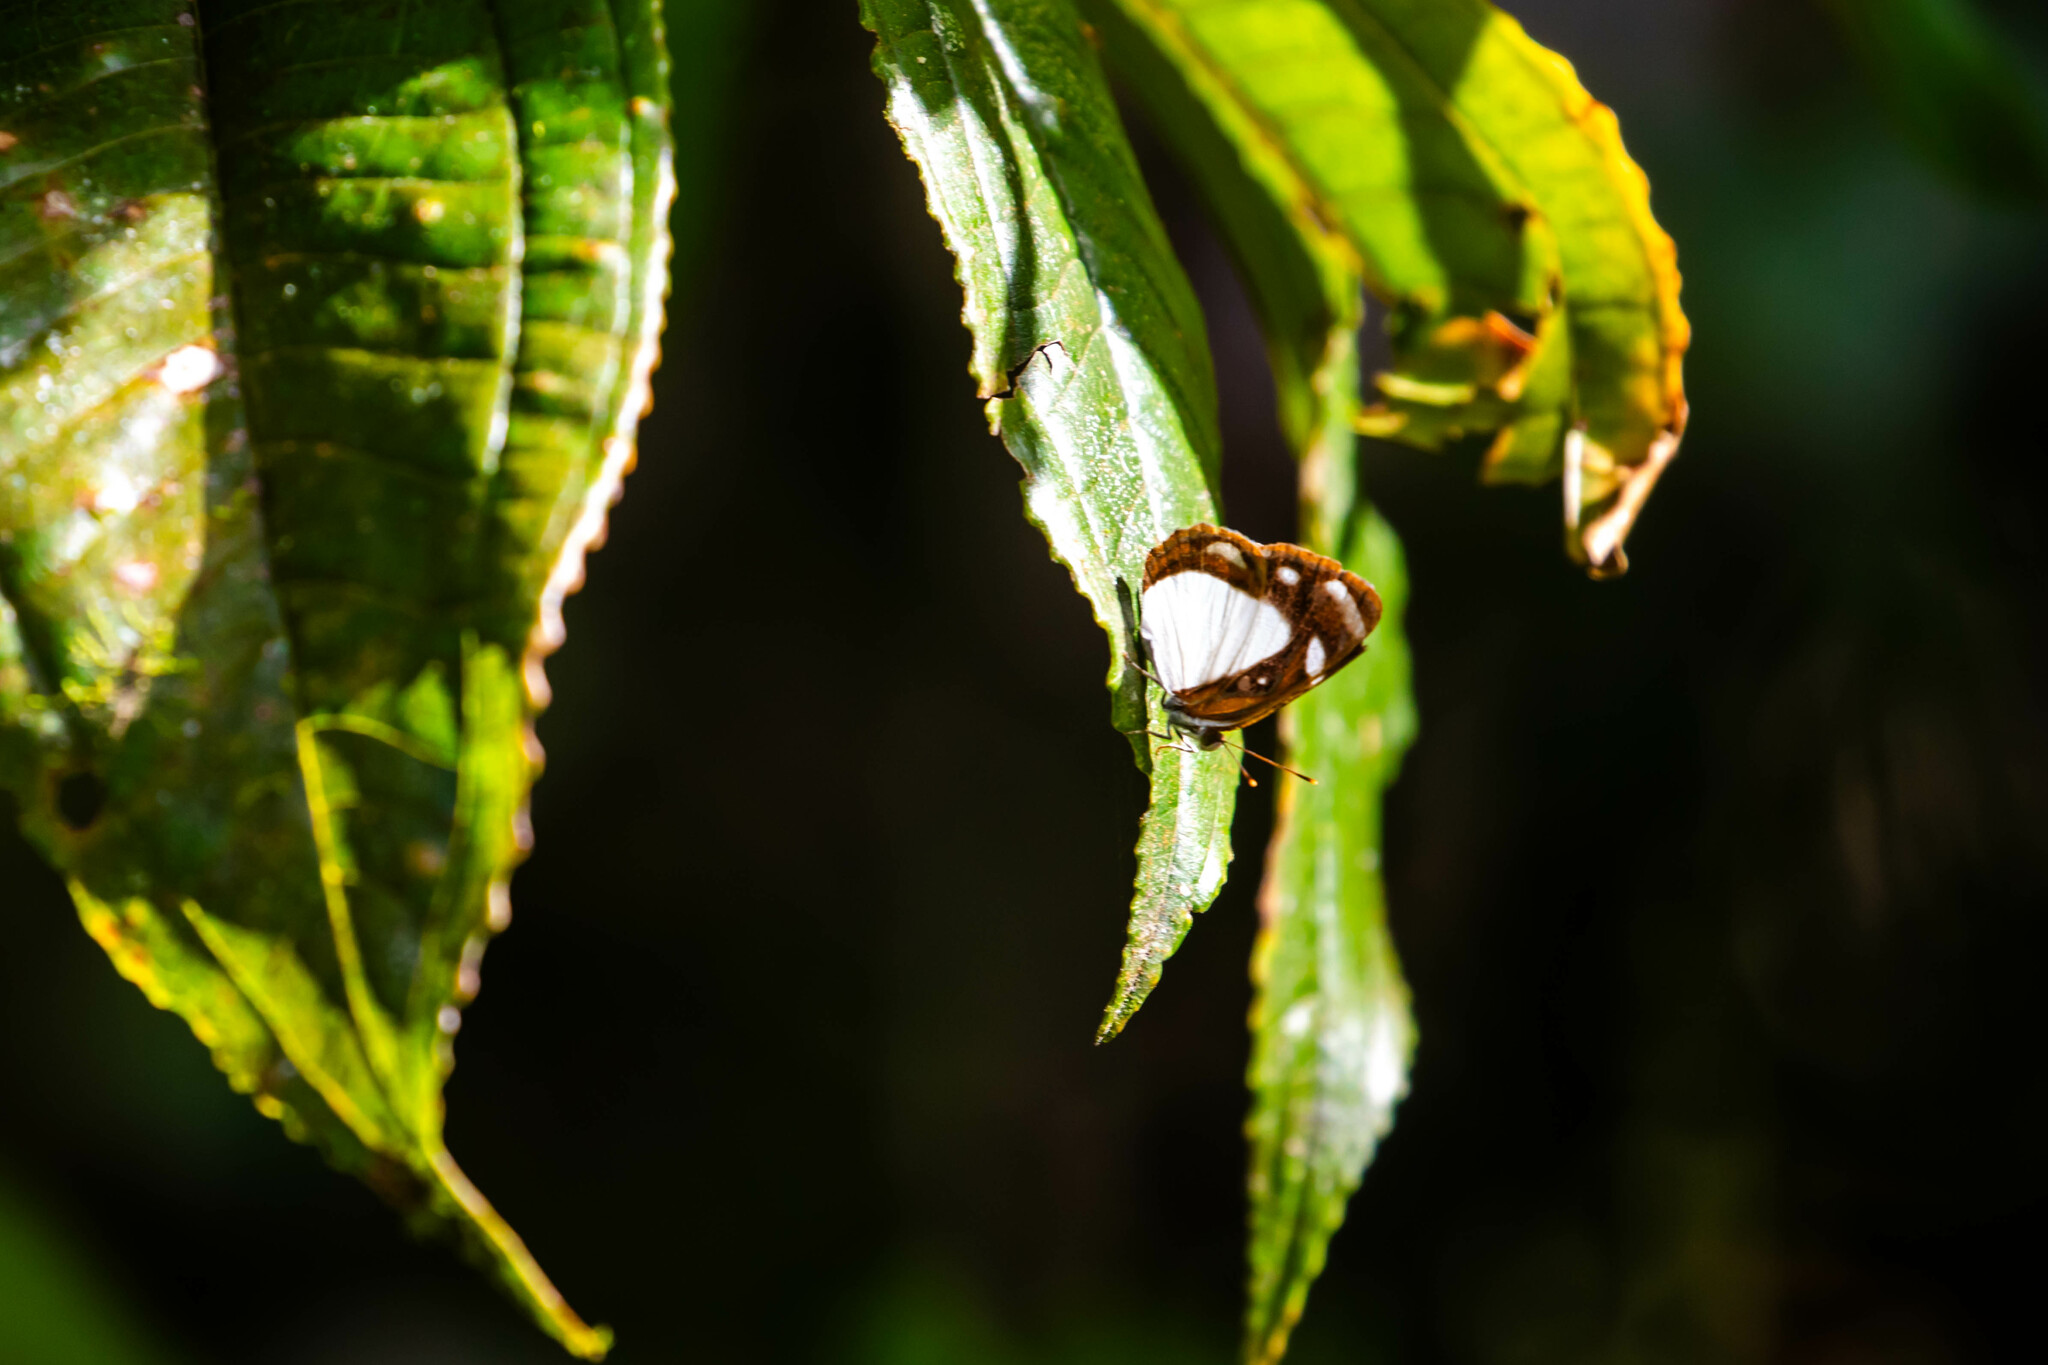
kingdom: Animalia
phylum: Arthropoda
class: Insecta
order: Lepidoptera
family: Nymphalidae
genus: Dynamine
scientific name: Dynamine theseus
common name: White sailor
